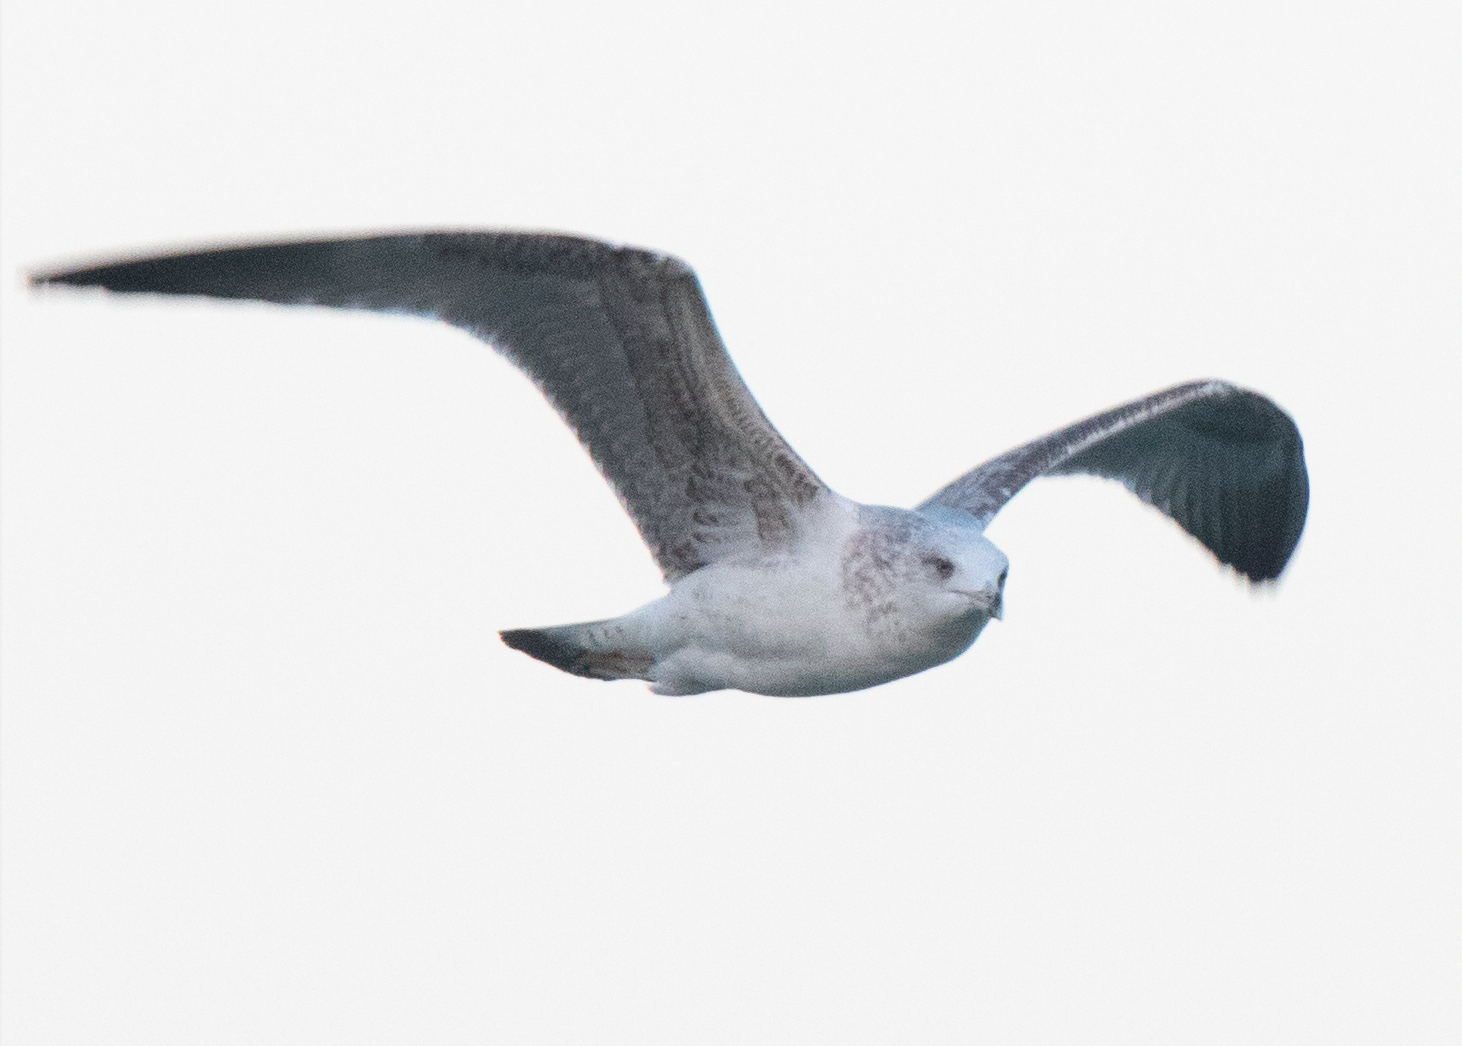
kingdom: Animalia
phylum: Chordata
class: Aves
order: Charadriiformes
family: Laridae
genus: Larus
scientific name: Larus michahellis
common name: Yellow-legged gull
